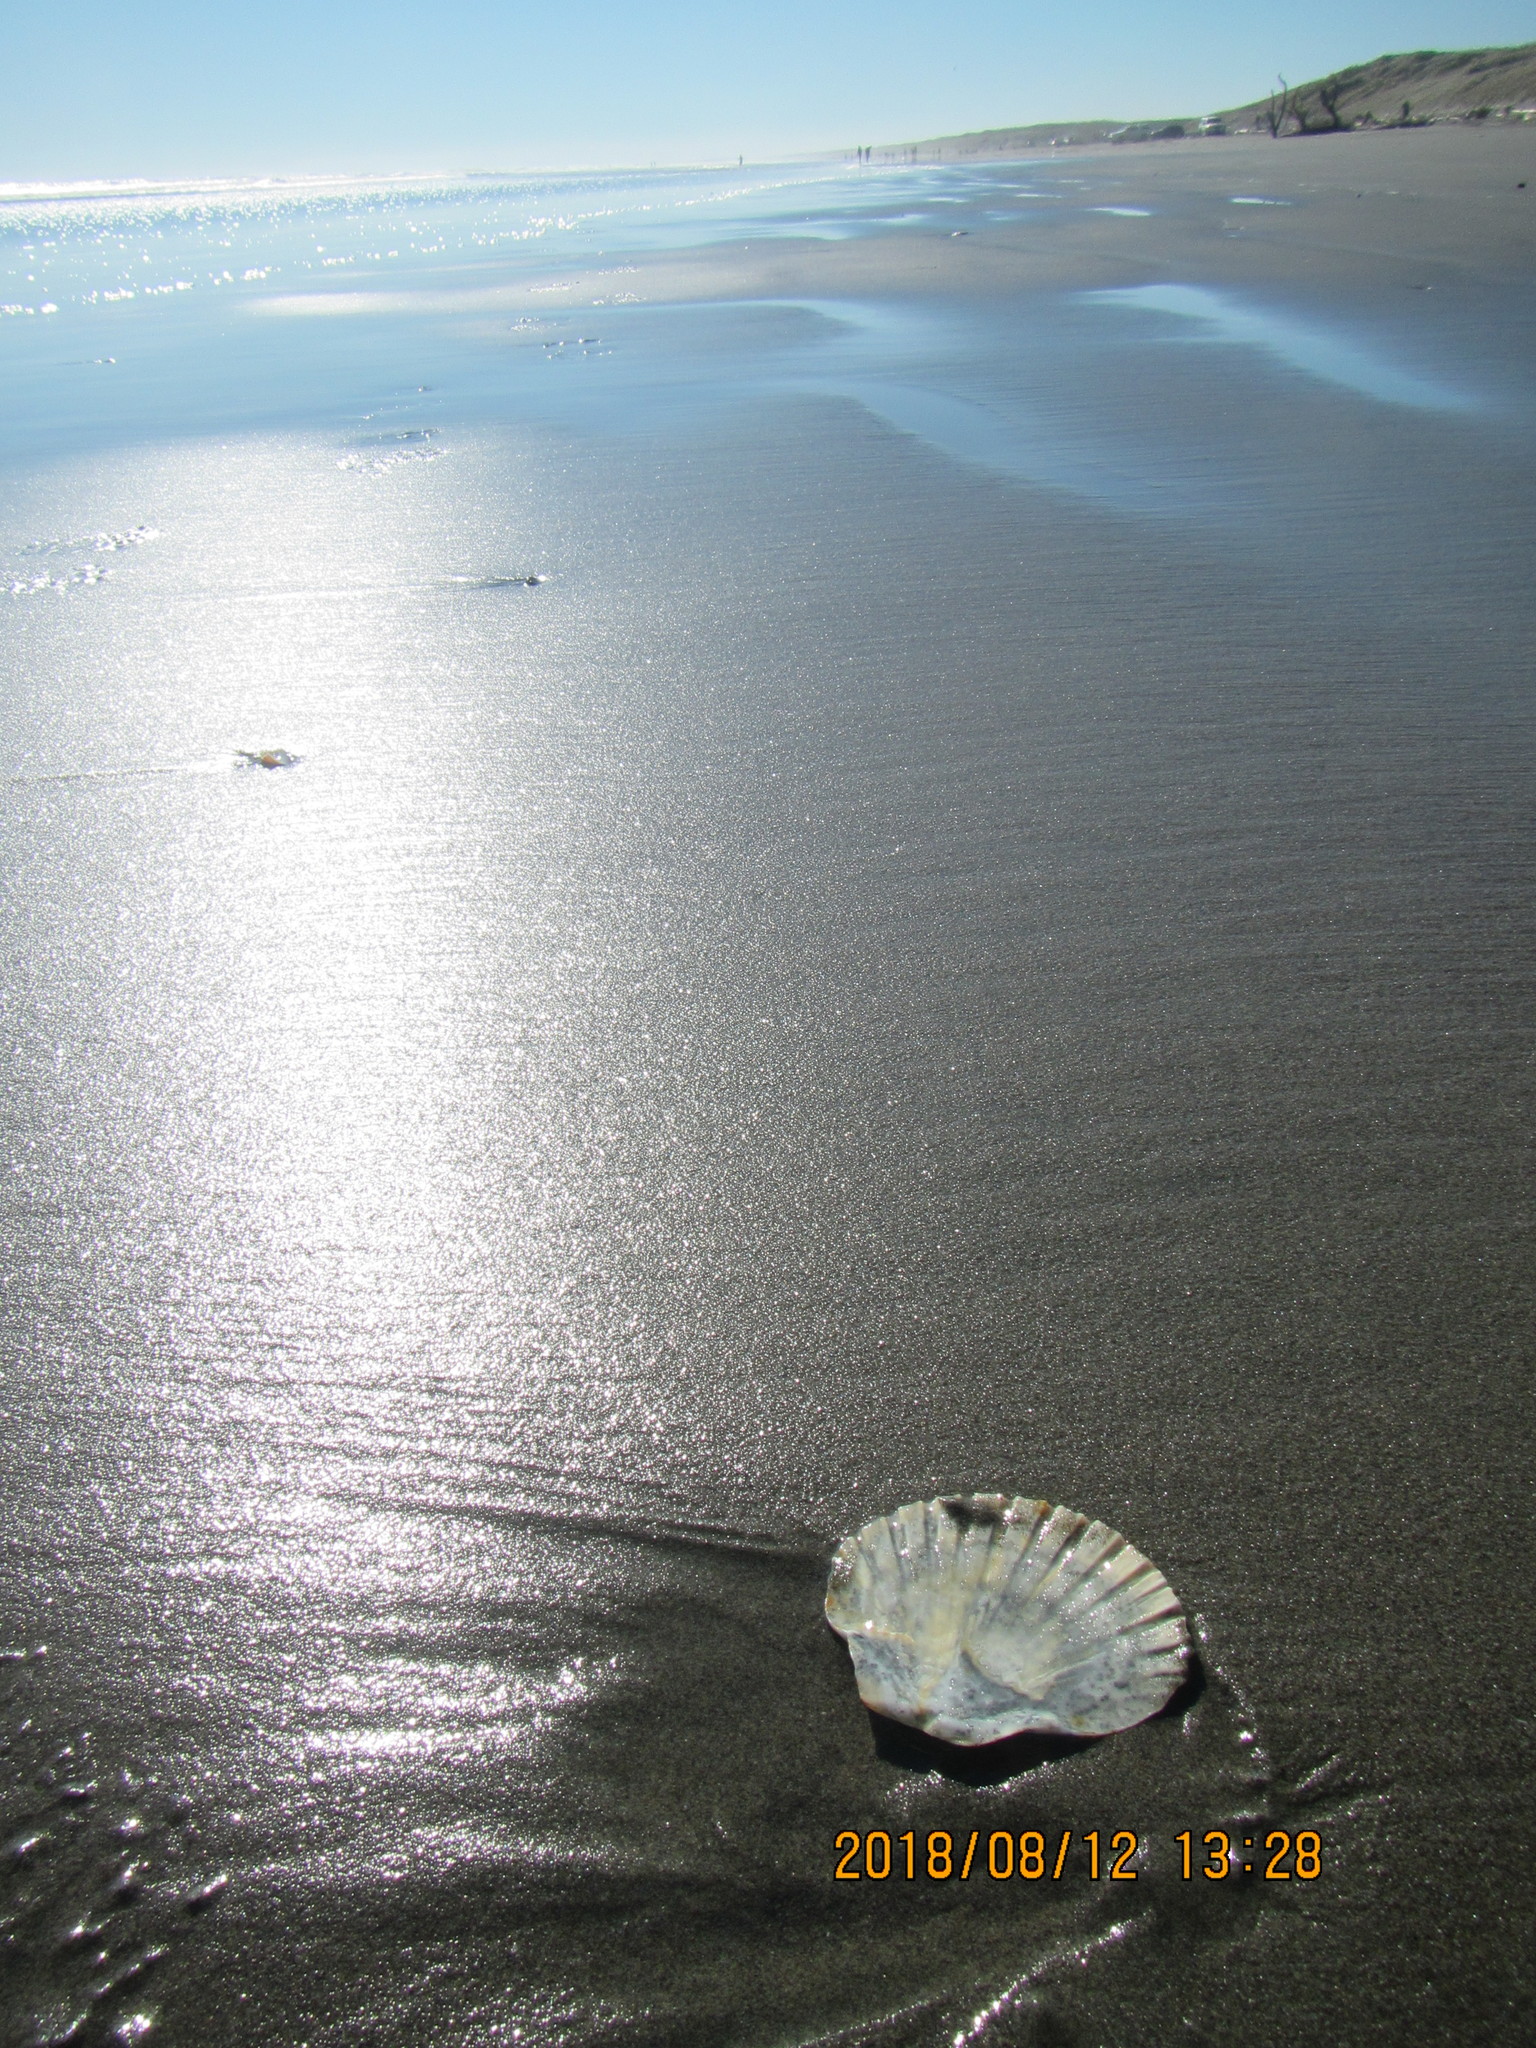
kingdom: Animalia
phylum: Mollusca
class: Bivalvia
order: Pectinida
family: Pectinidae
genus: Pecten
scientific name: Pecten novaezelandiae
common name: New zealand scallop
